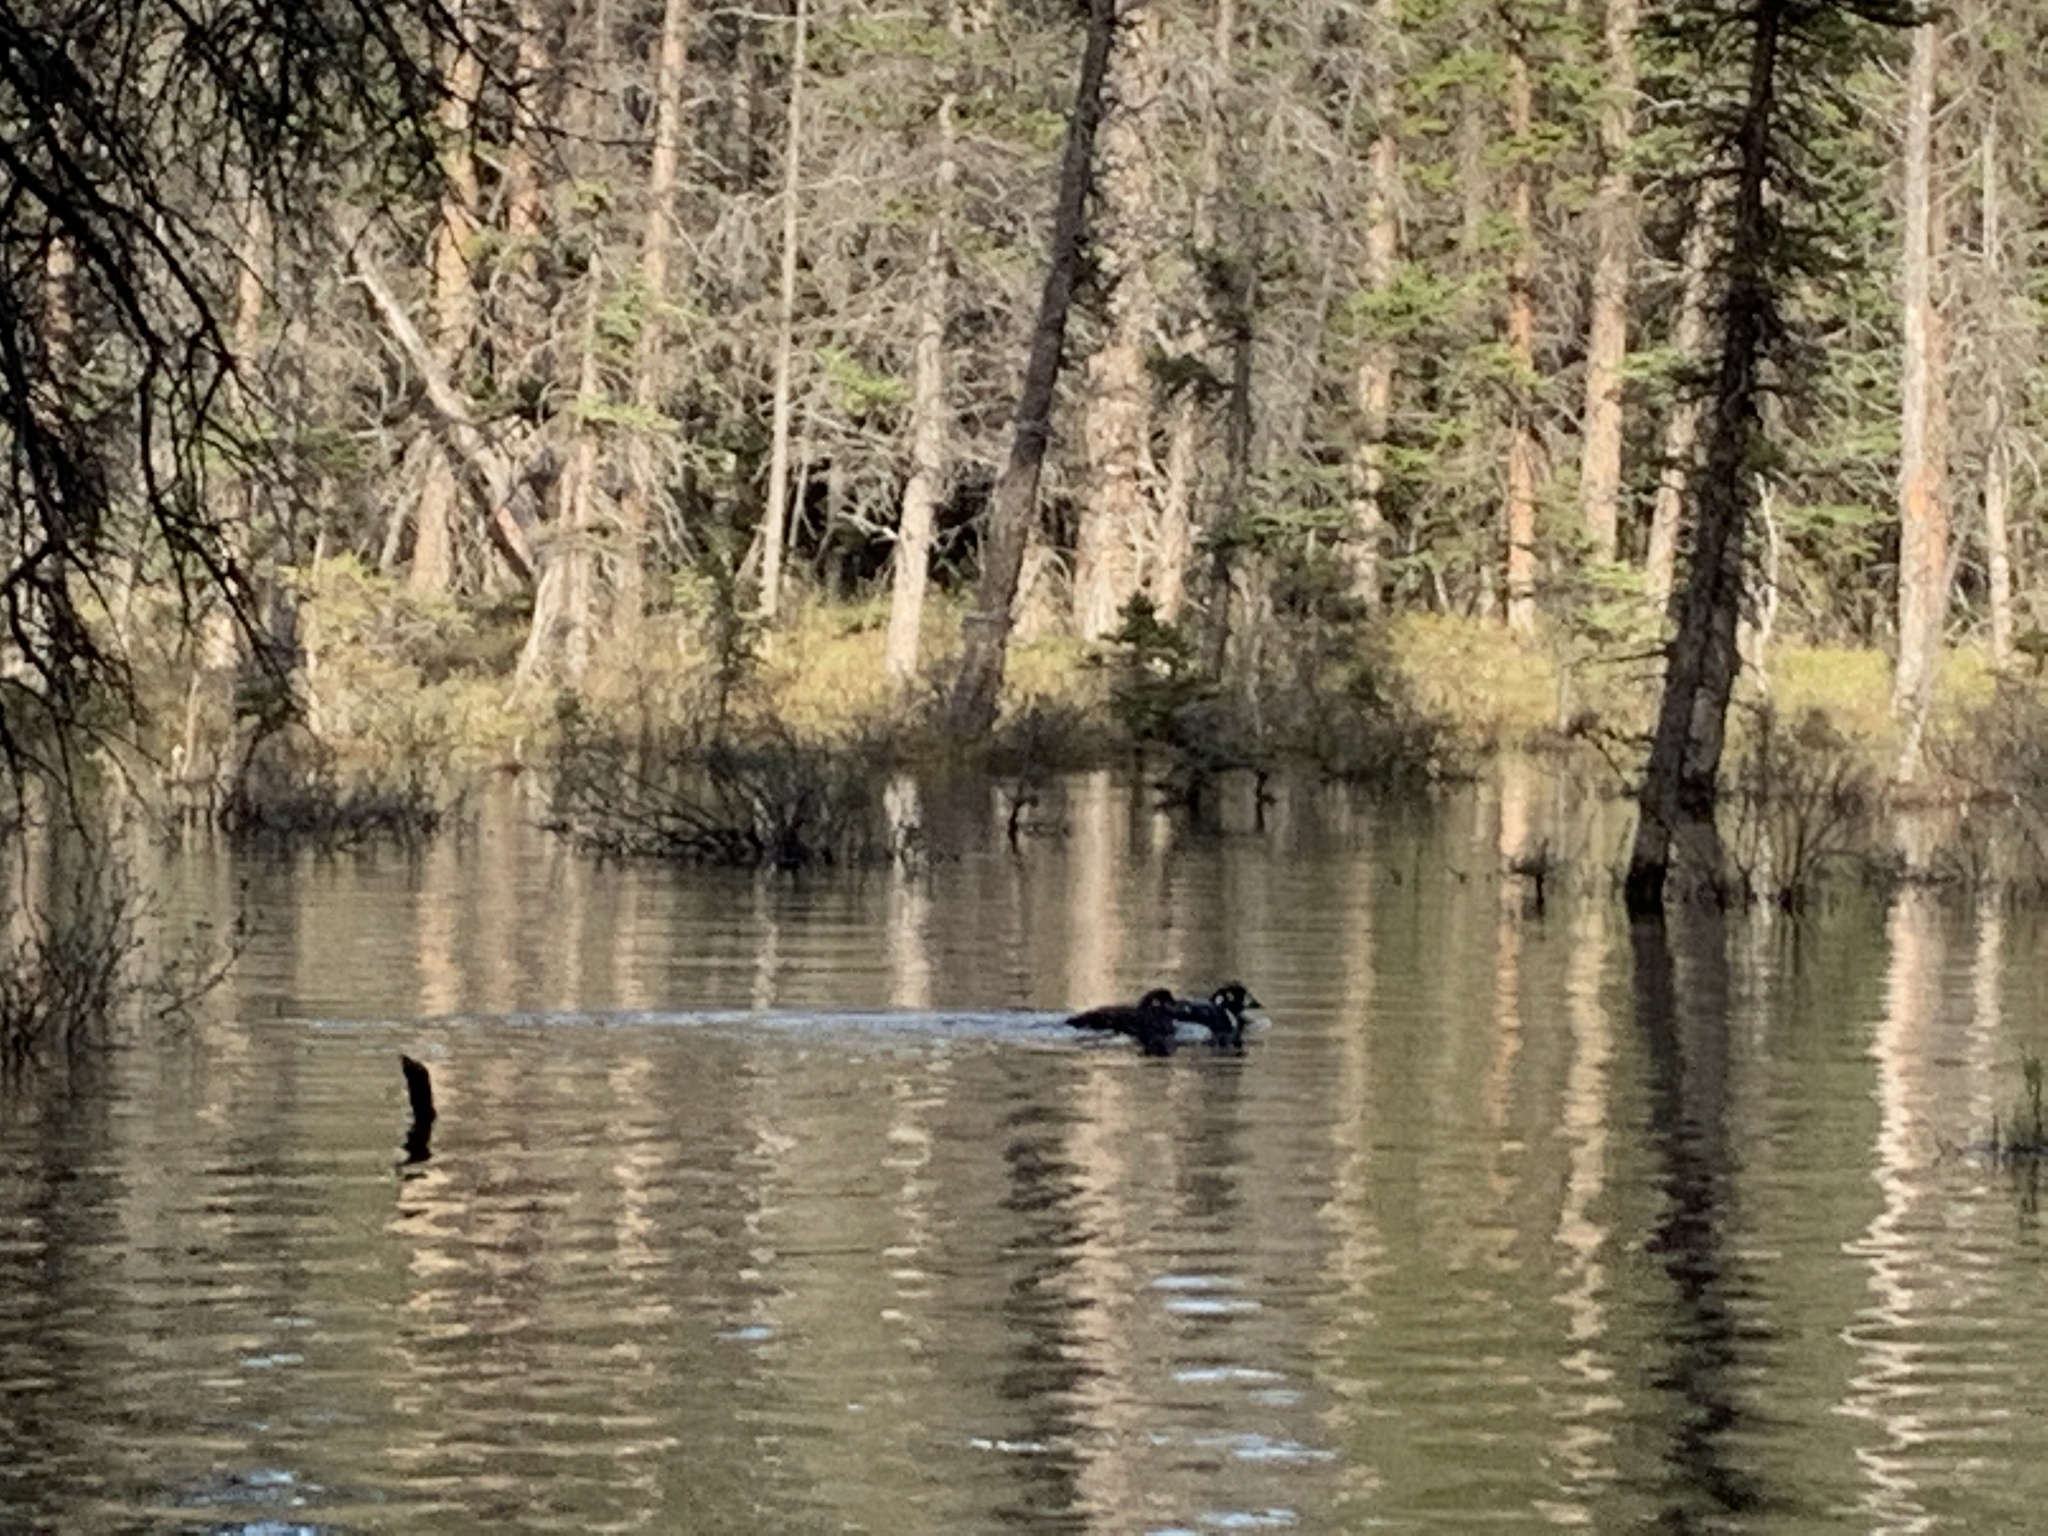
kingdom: Animalia
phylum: Chordata
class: Aves
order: Anseriformes
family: Anatidae
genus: Histrionicus
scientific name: Histrionicus histrionicus
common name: Harlequin duck
